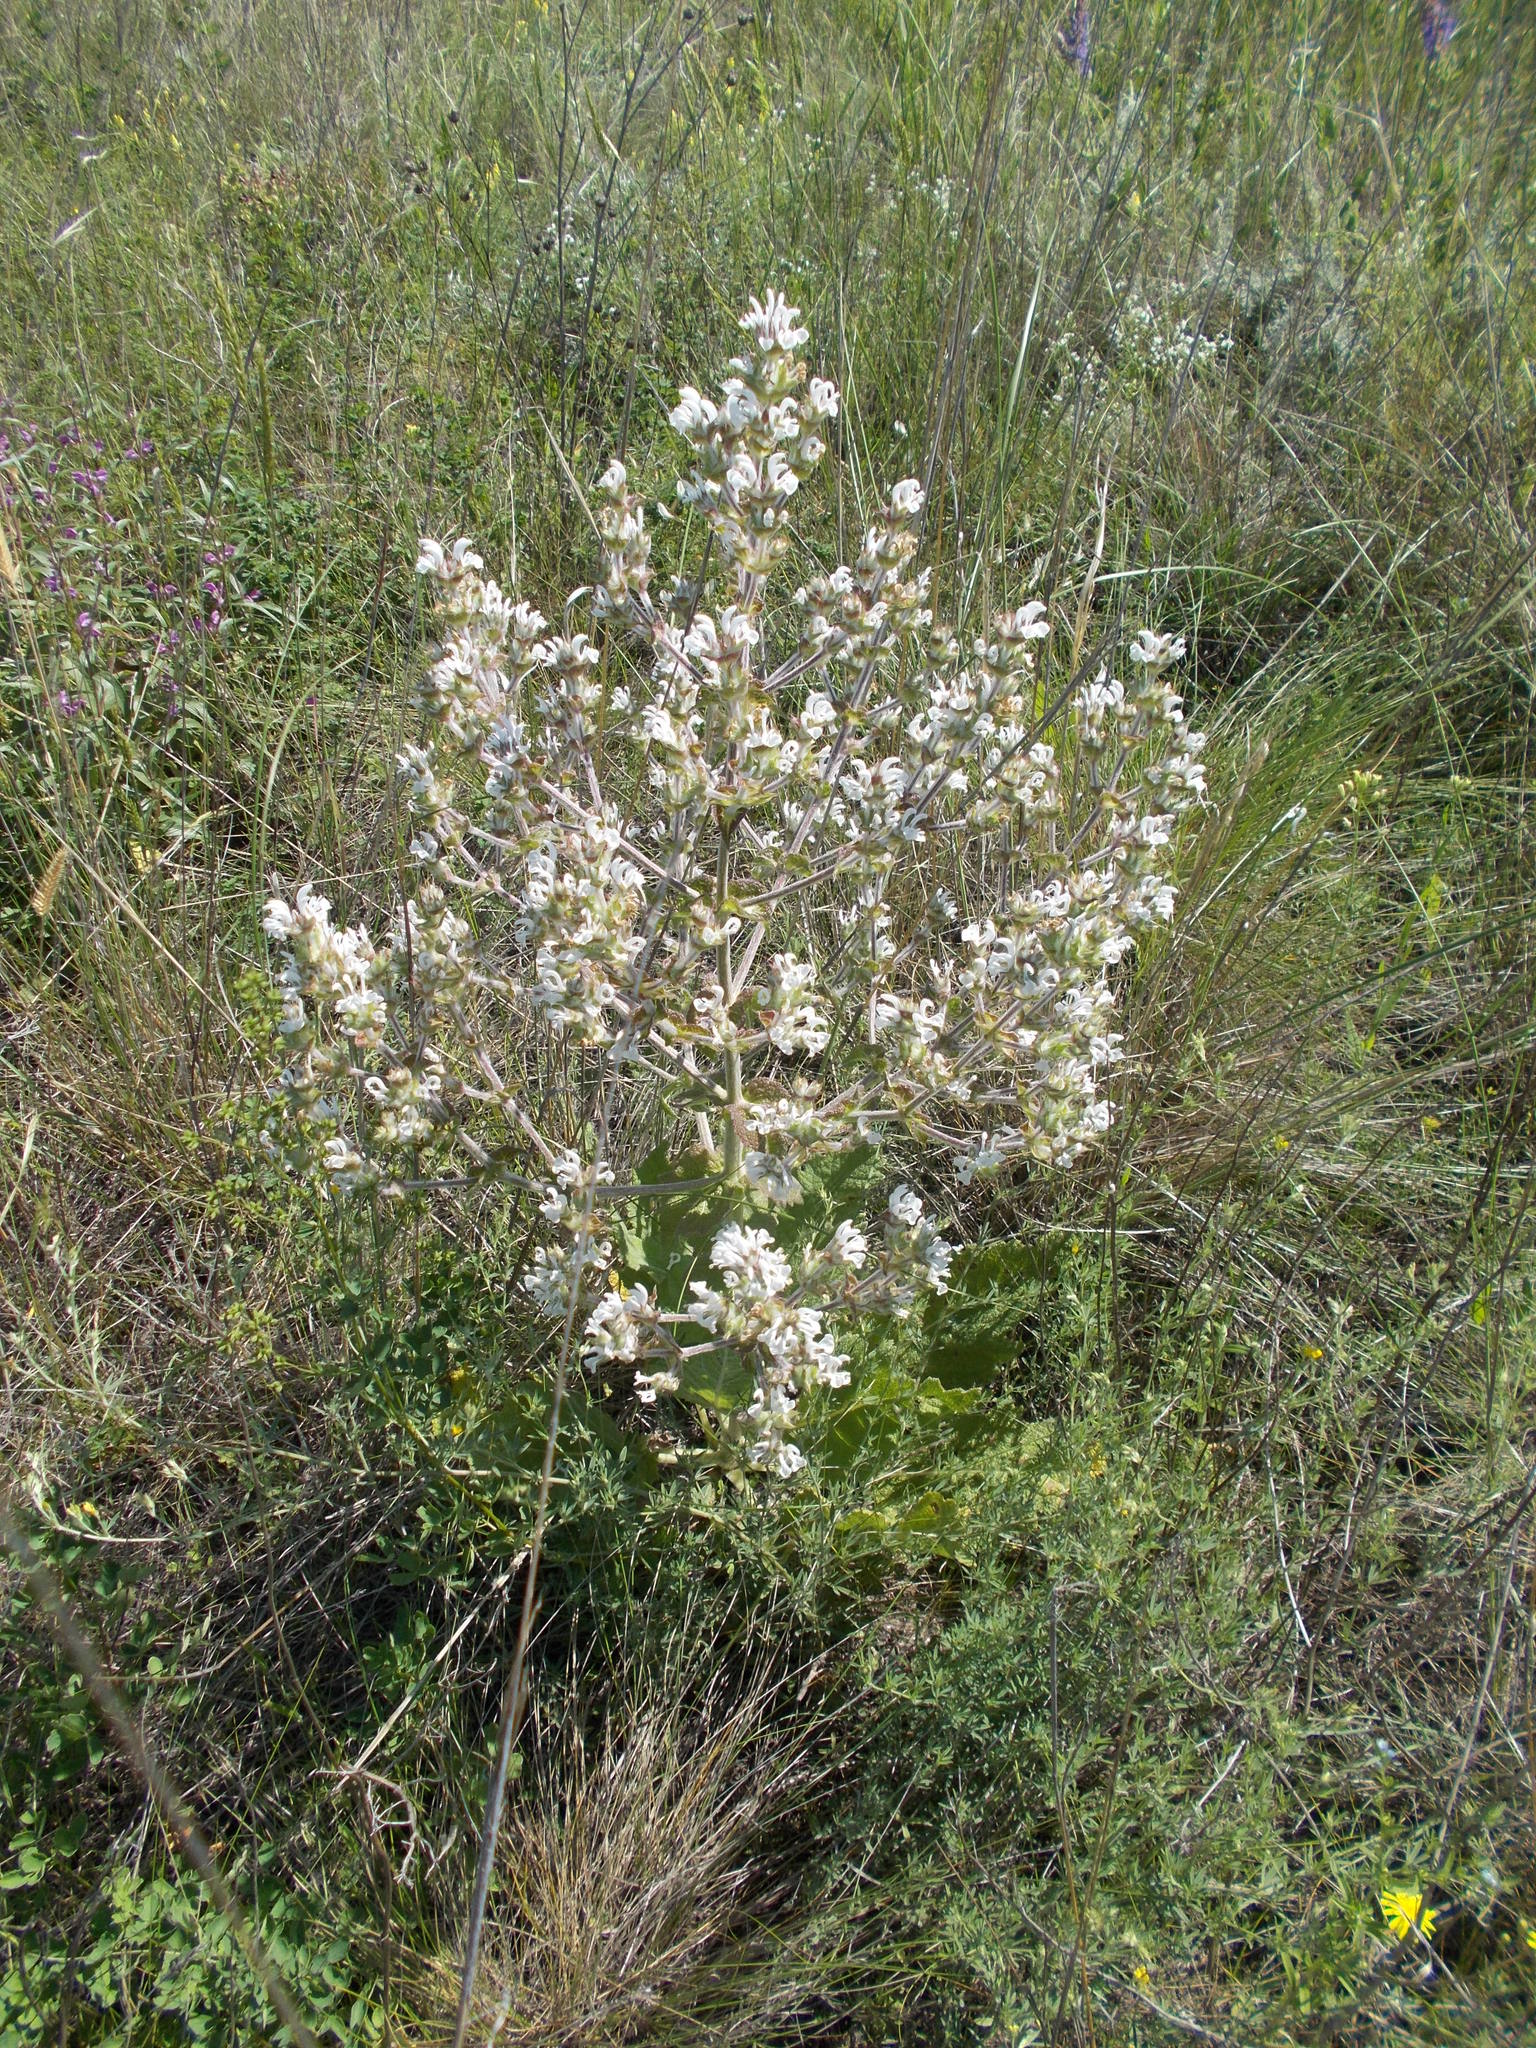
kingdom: Plantae
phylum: Tracheophyta
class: Magnoliopsida
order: Lamiales
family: Lamiaceae
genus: Salvia
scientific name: Salvia aethiopis
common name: Mediterranean sage
